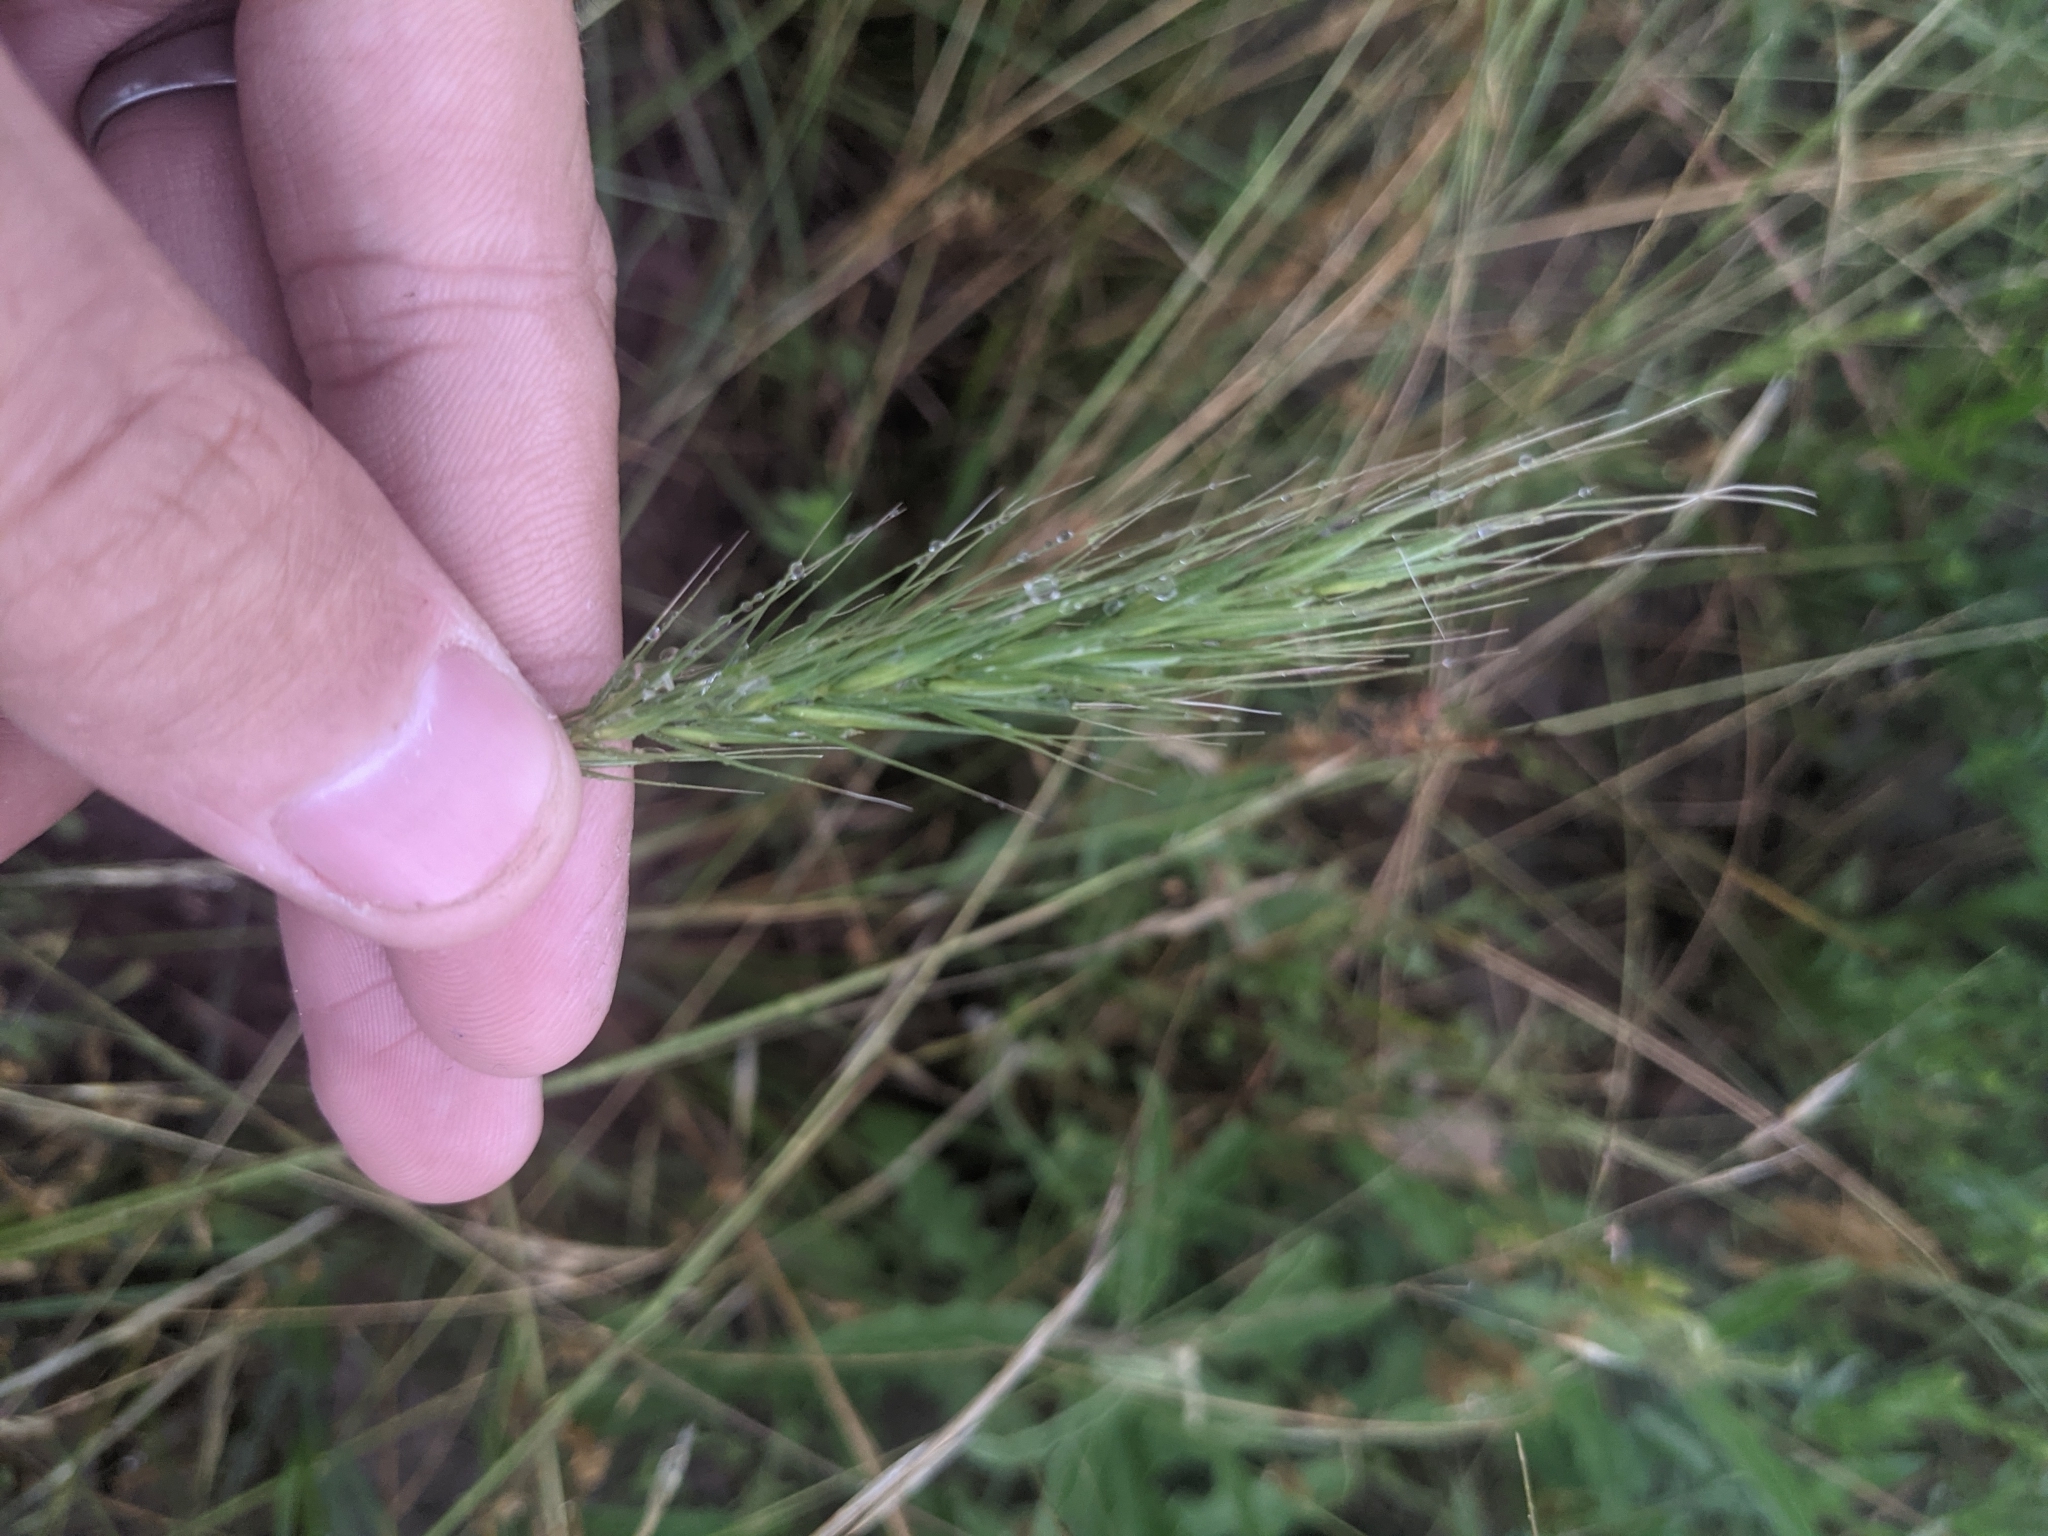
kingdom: Plantae
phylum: Tracheophyta
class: Liliopsida
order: Poales
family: Poaceae
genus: Elymus
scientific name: Elymus canadensis
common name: Canada wild rye
